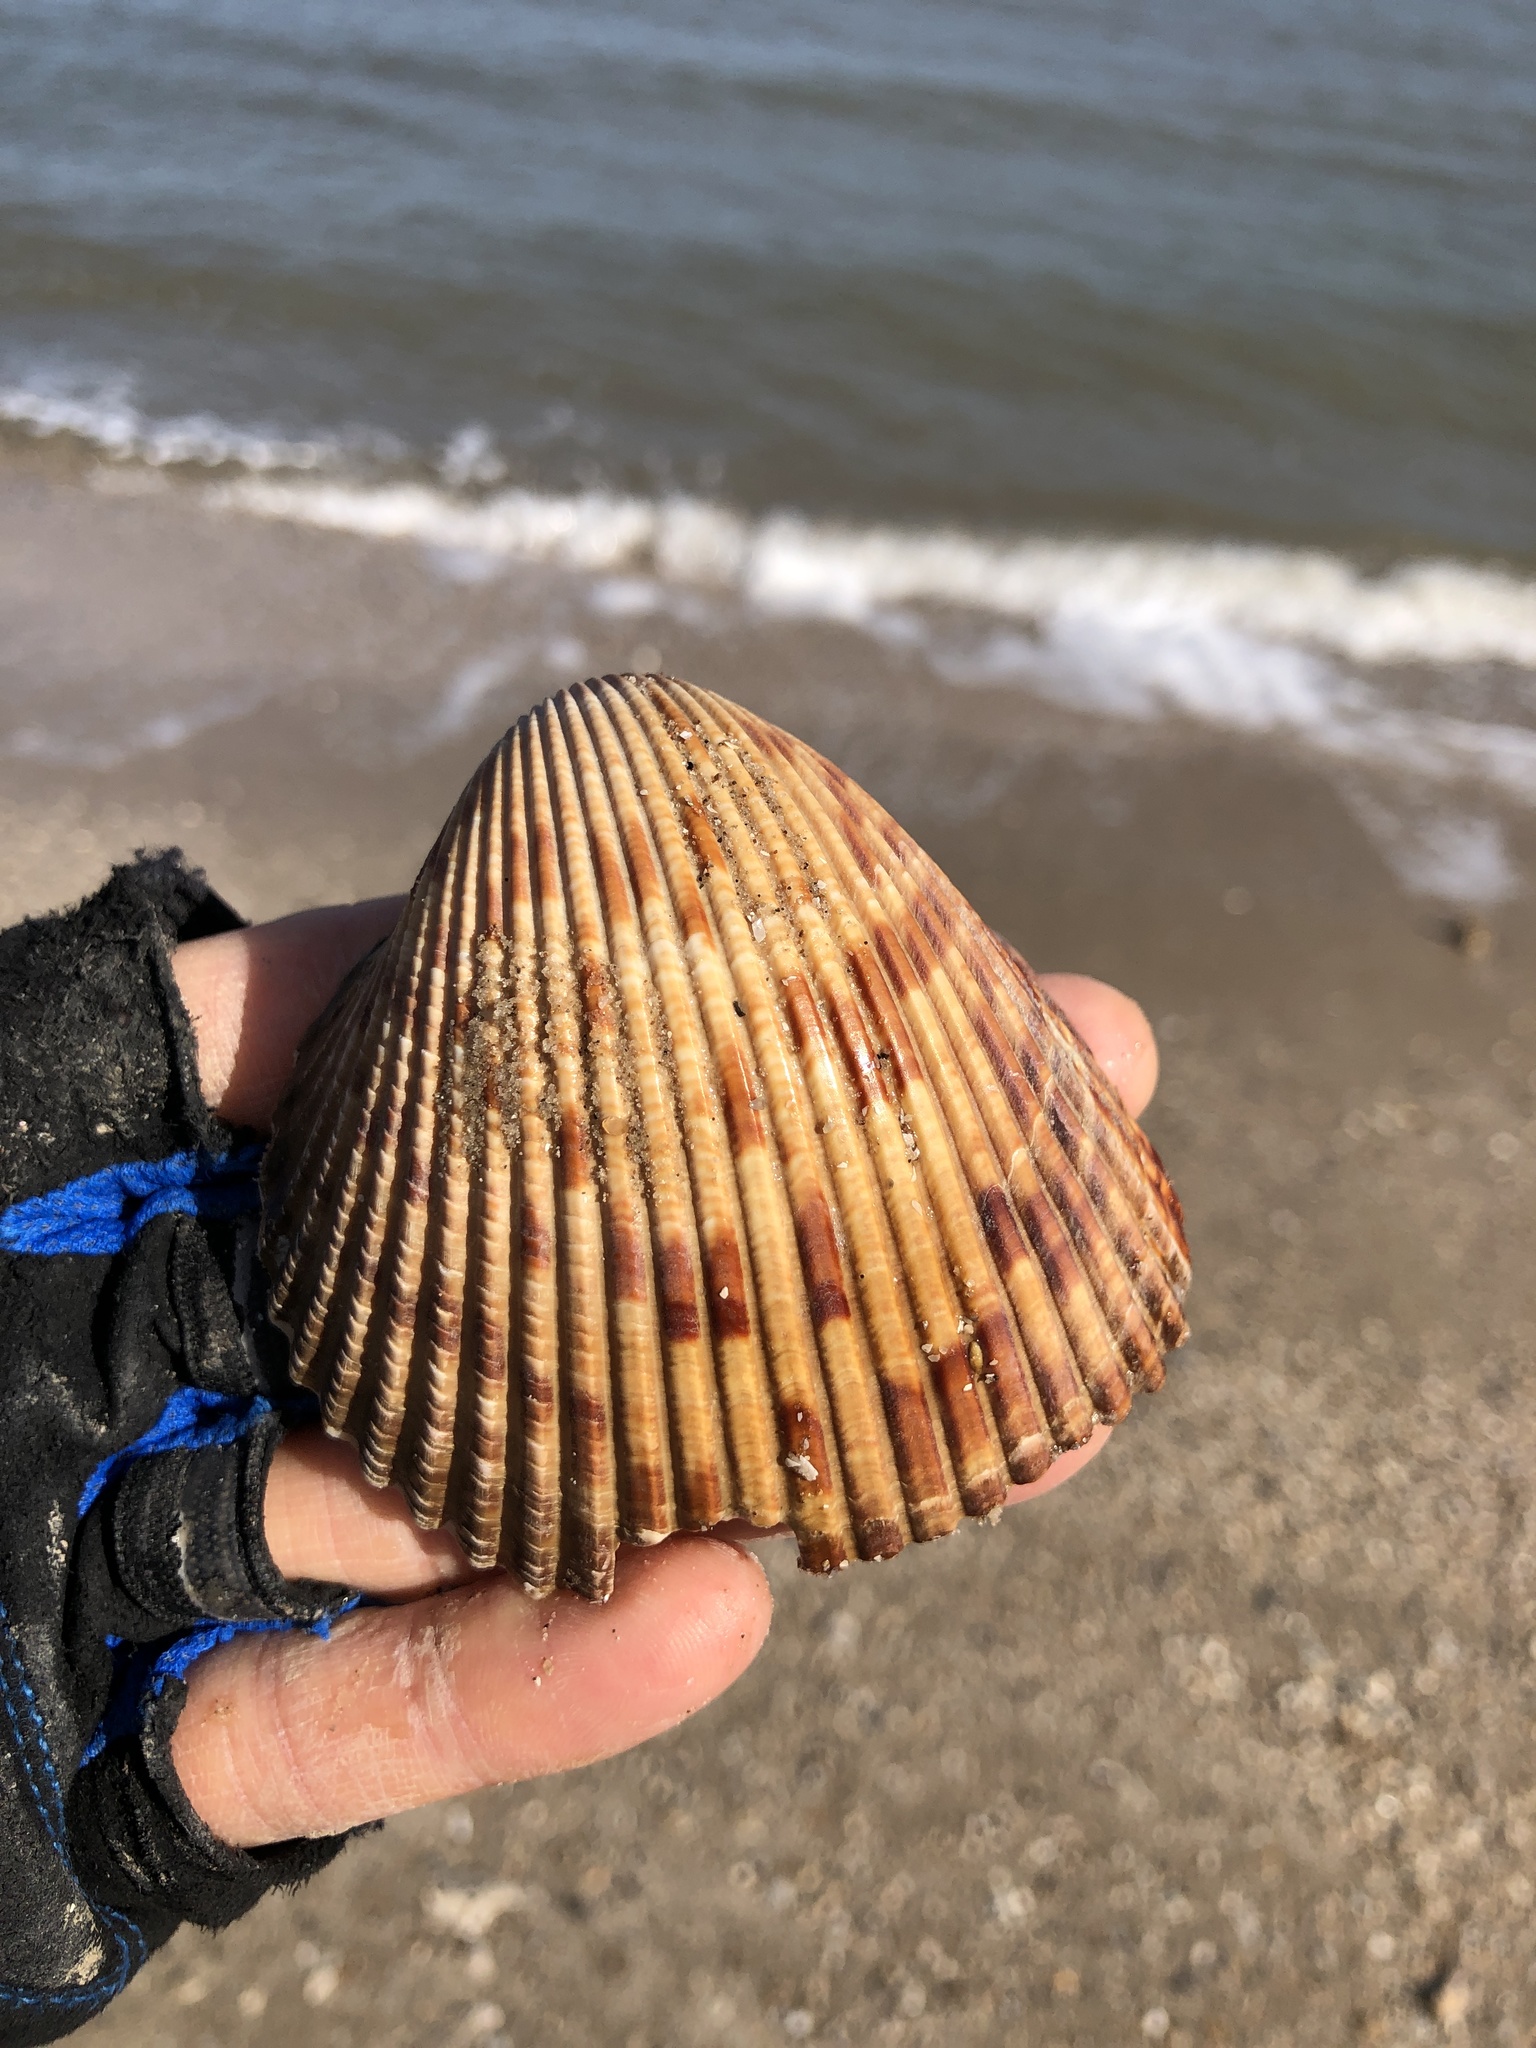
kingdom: Animalia
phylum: Mollusca
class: Bivalvia
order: Cardiida
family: Cardiidae
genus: Dinocardium
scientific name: Dinocardium robustum
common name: Atlantic giant cockle
